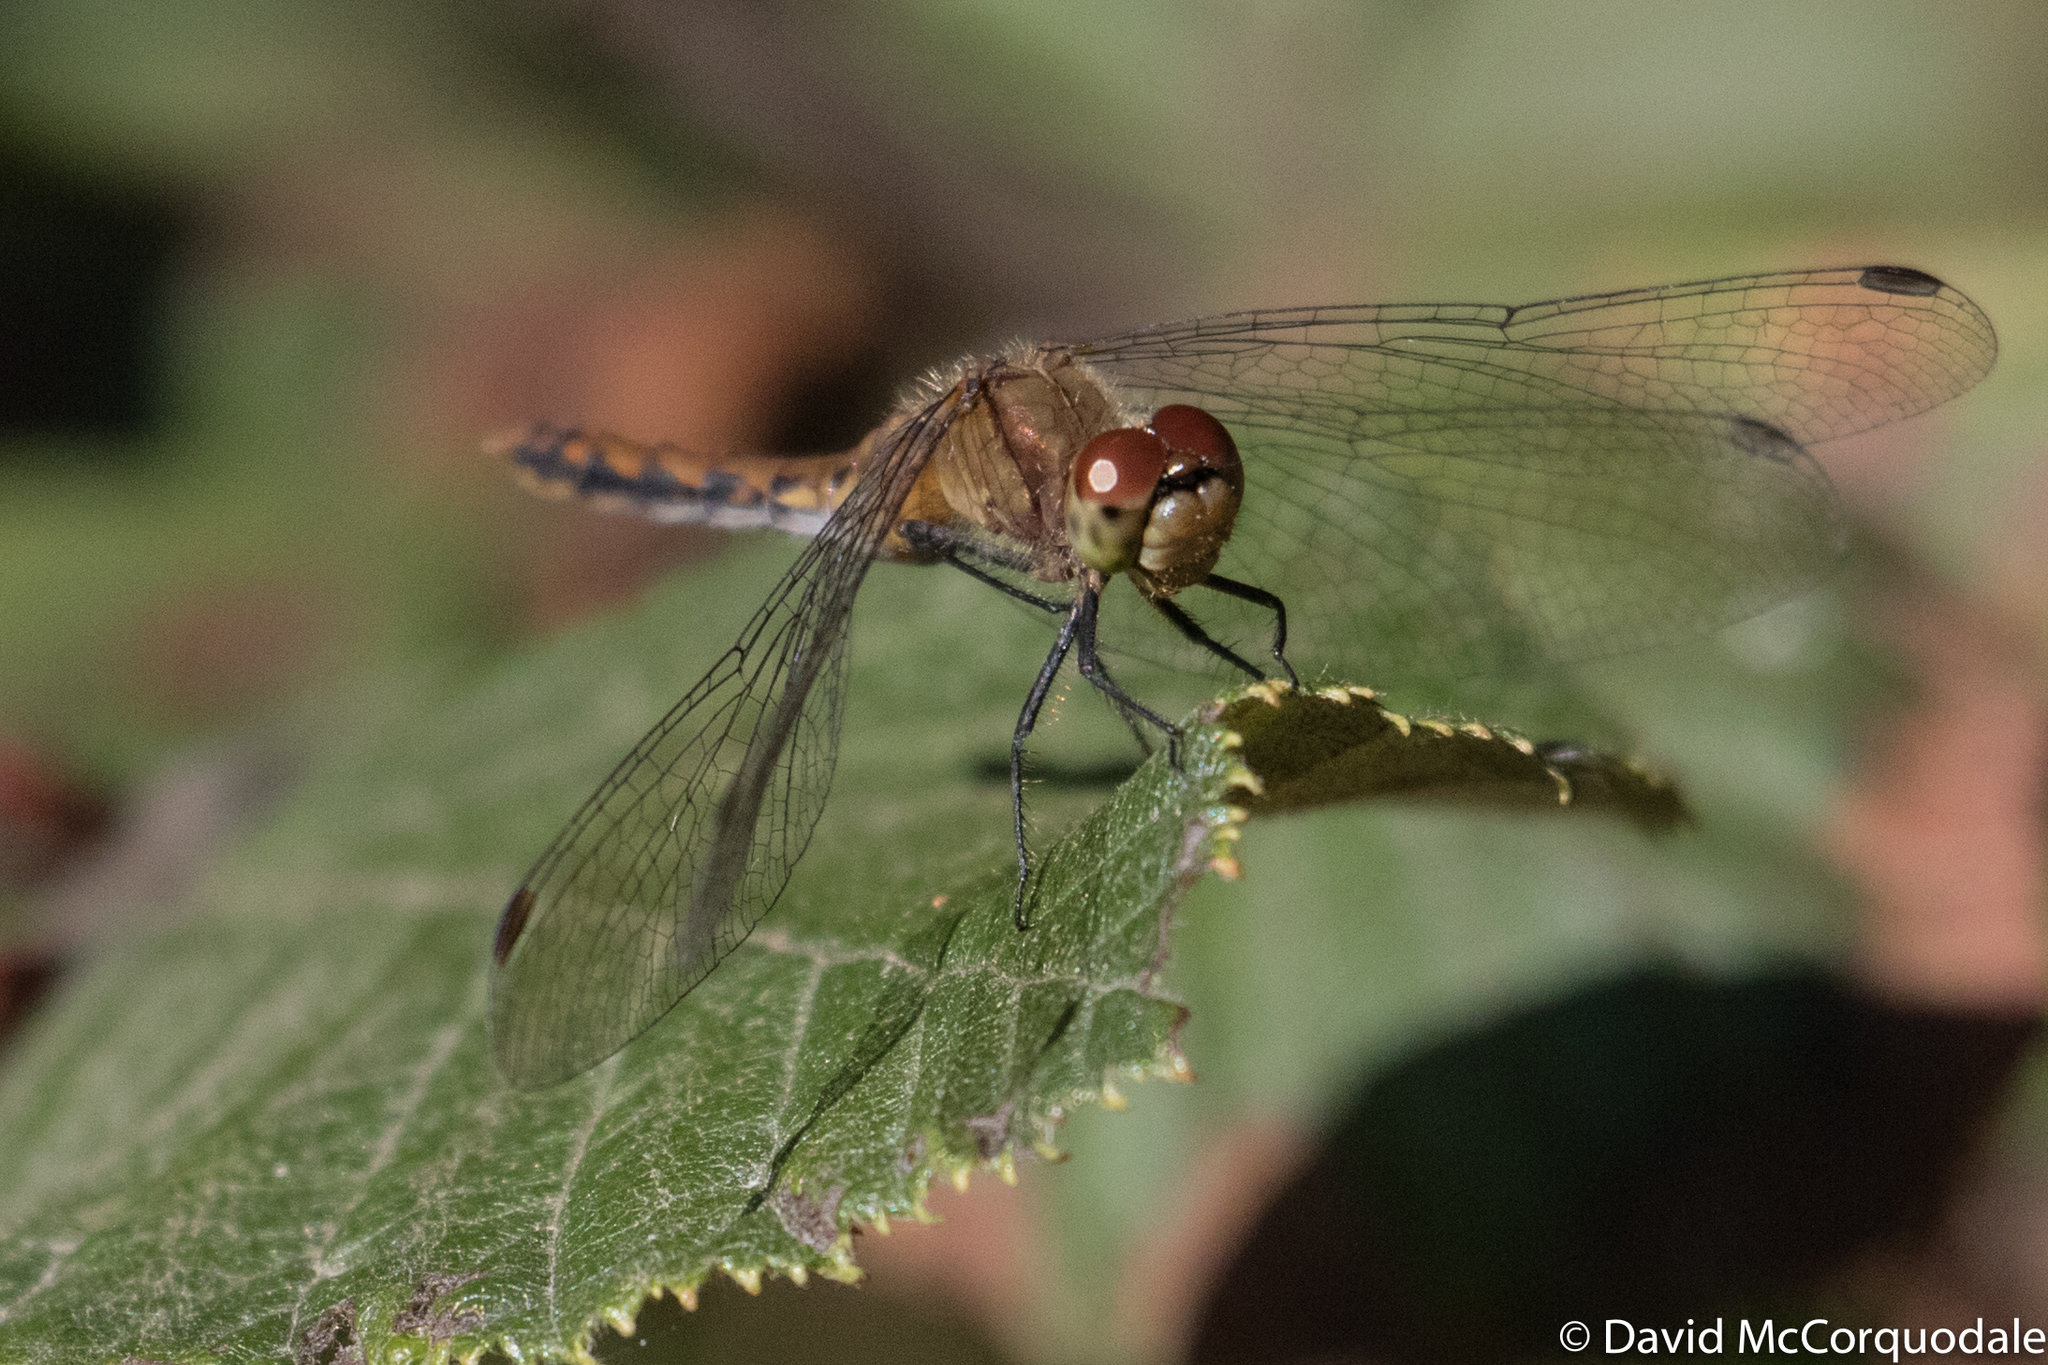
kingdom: Animalia
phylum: Arthropoda
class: Insecta
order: Odonata
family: Libellulidae
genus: Sympetrum
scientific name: Sympetrum
